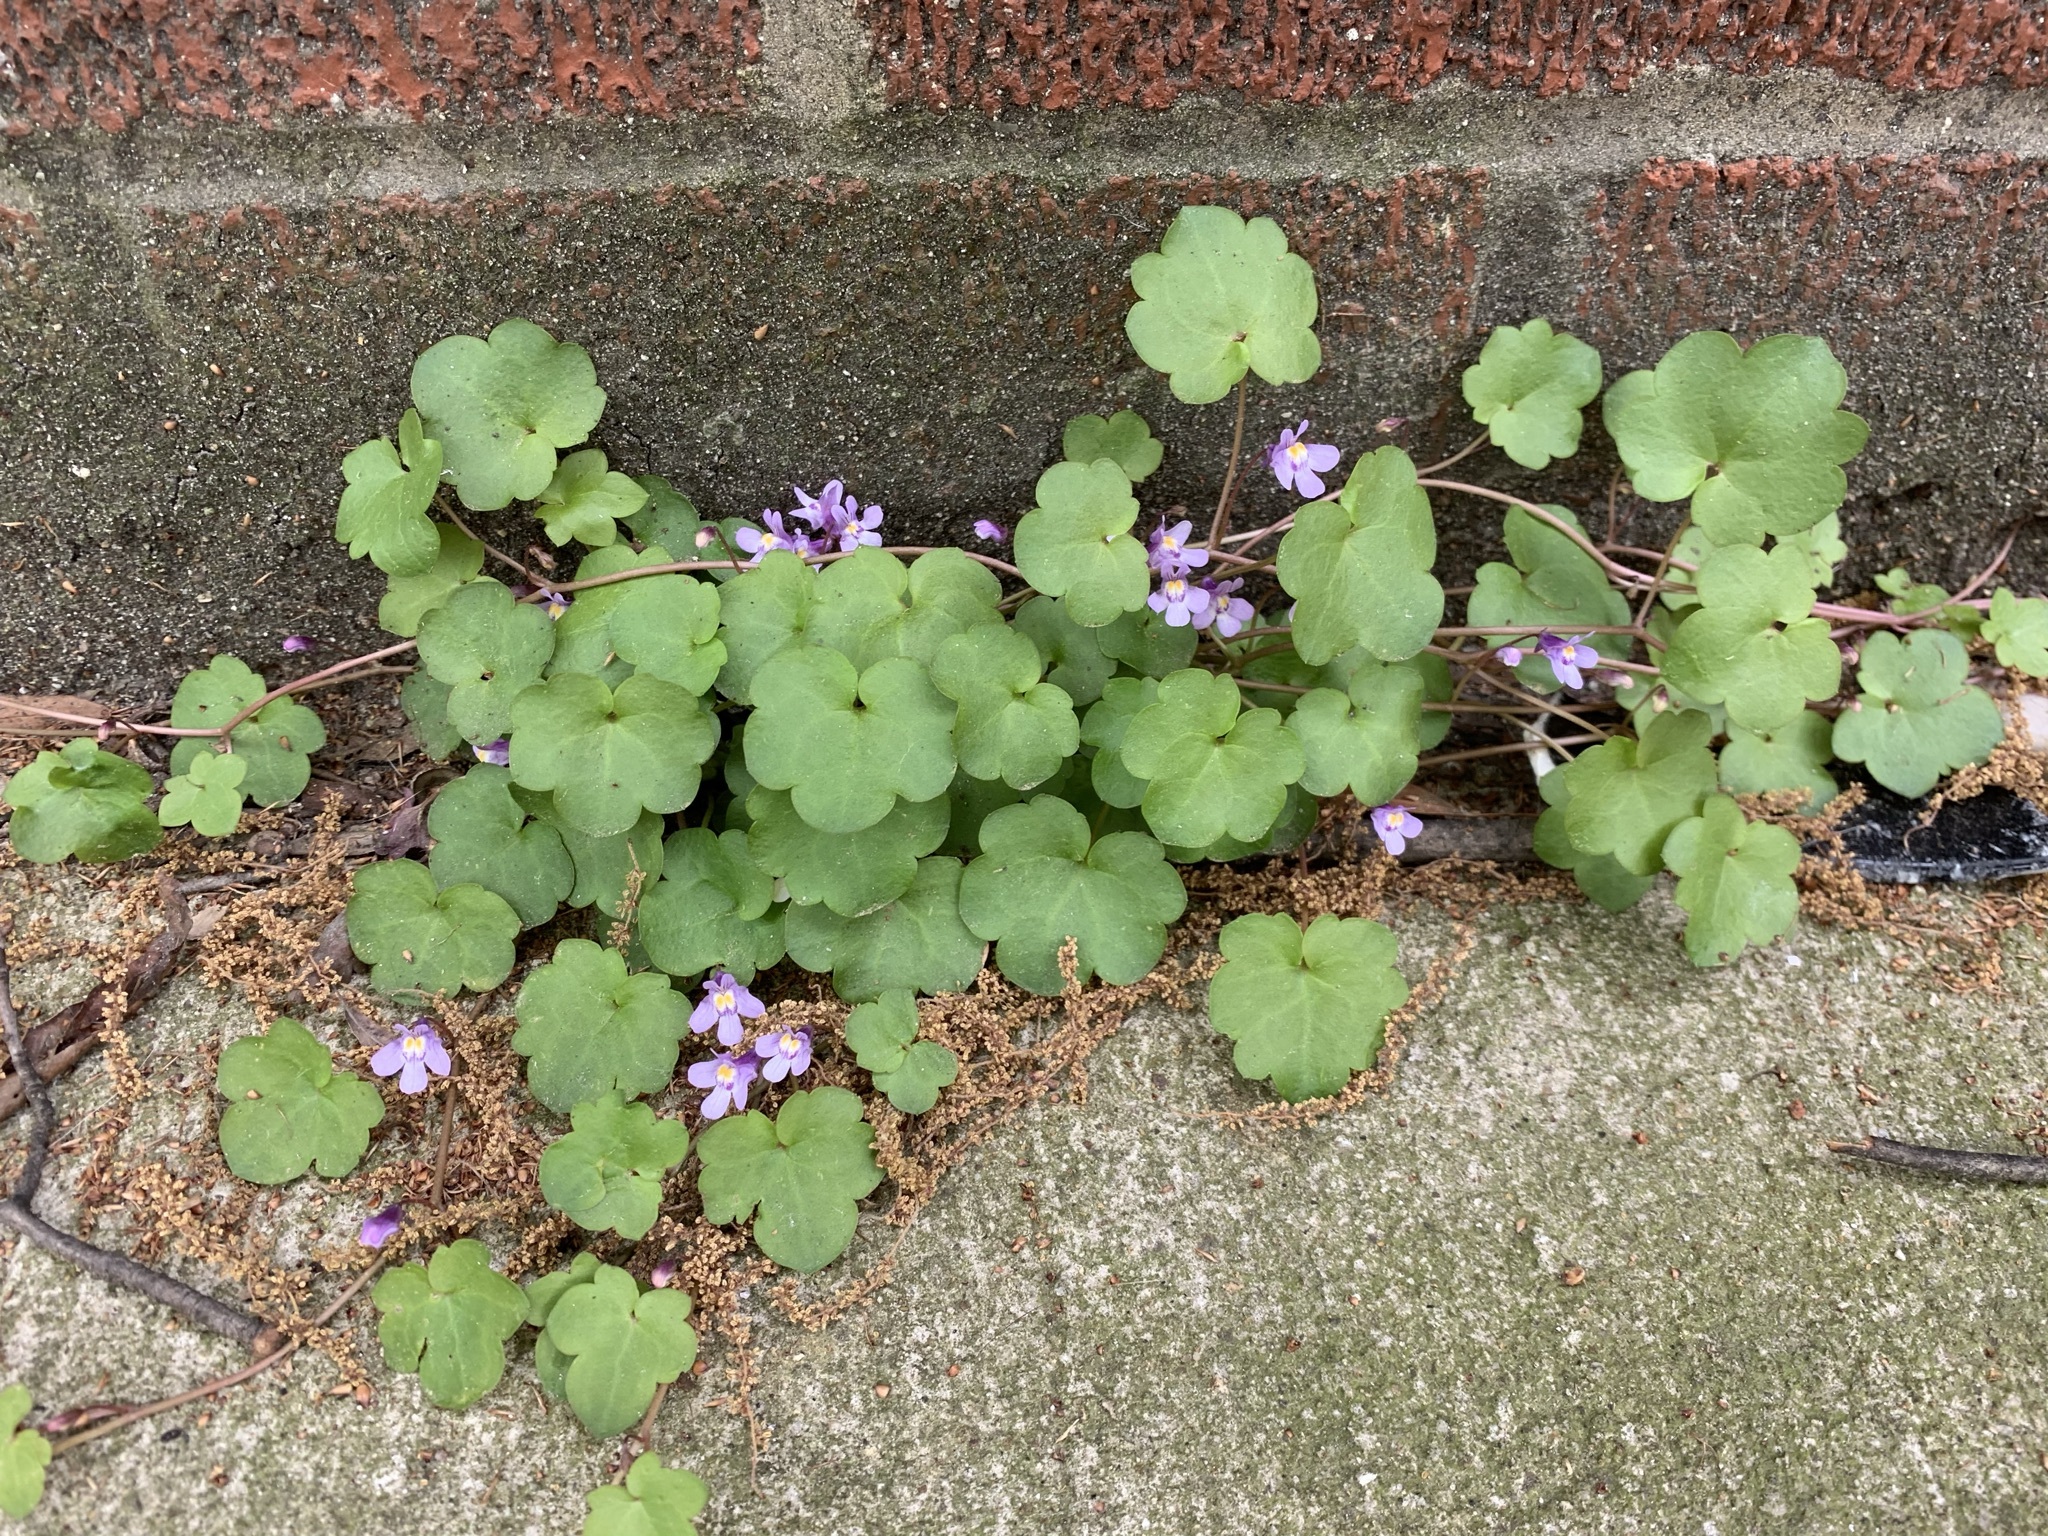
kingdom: Plantae
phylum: Tracheophyta
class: Magnoliopsida
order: Lamiales
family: Plantaginaceae
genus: Cymbalaria
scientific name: Cymbalaria muralis
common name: Ivy-leaved toadflax
